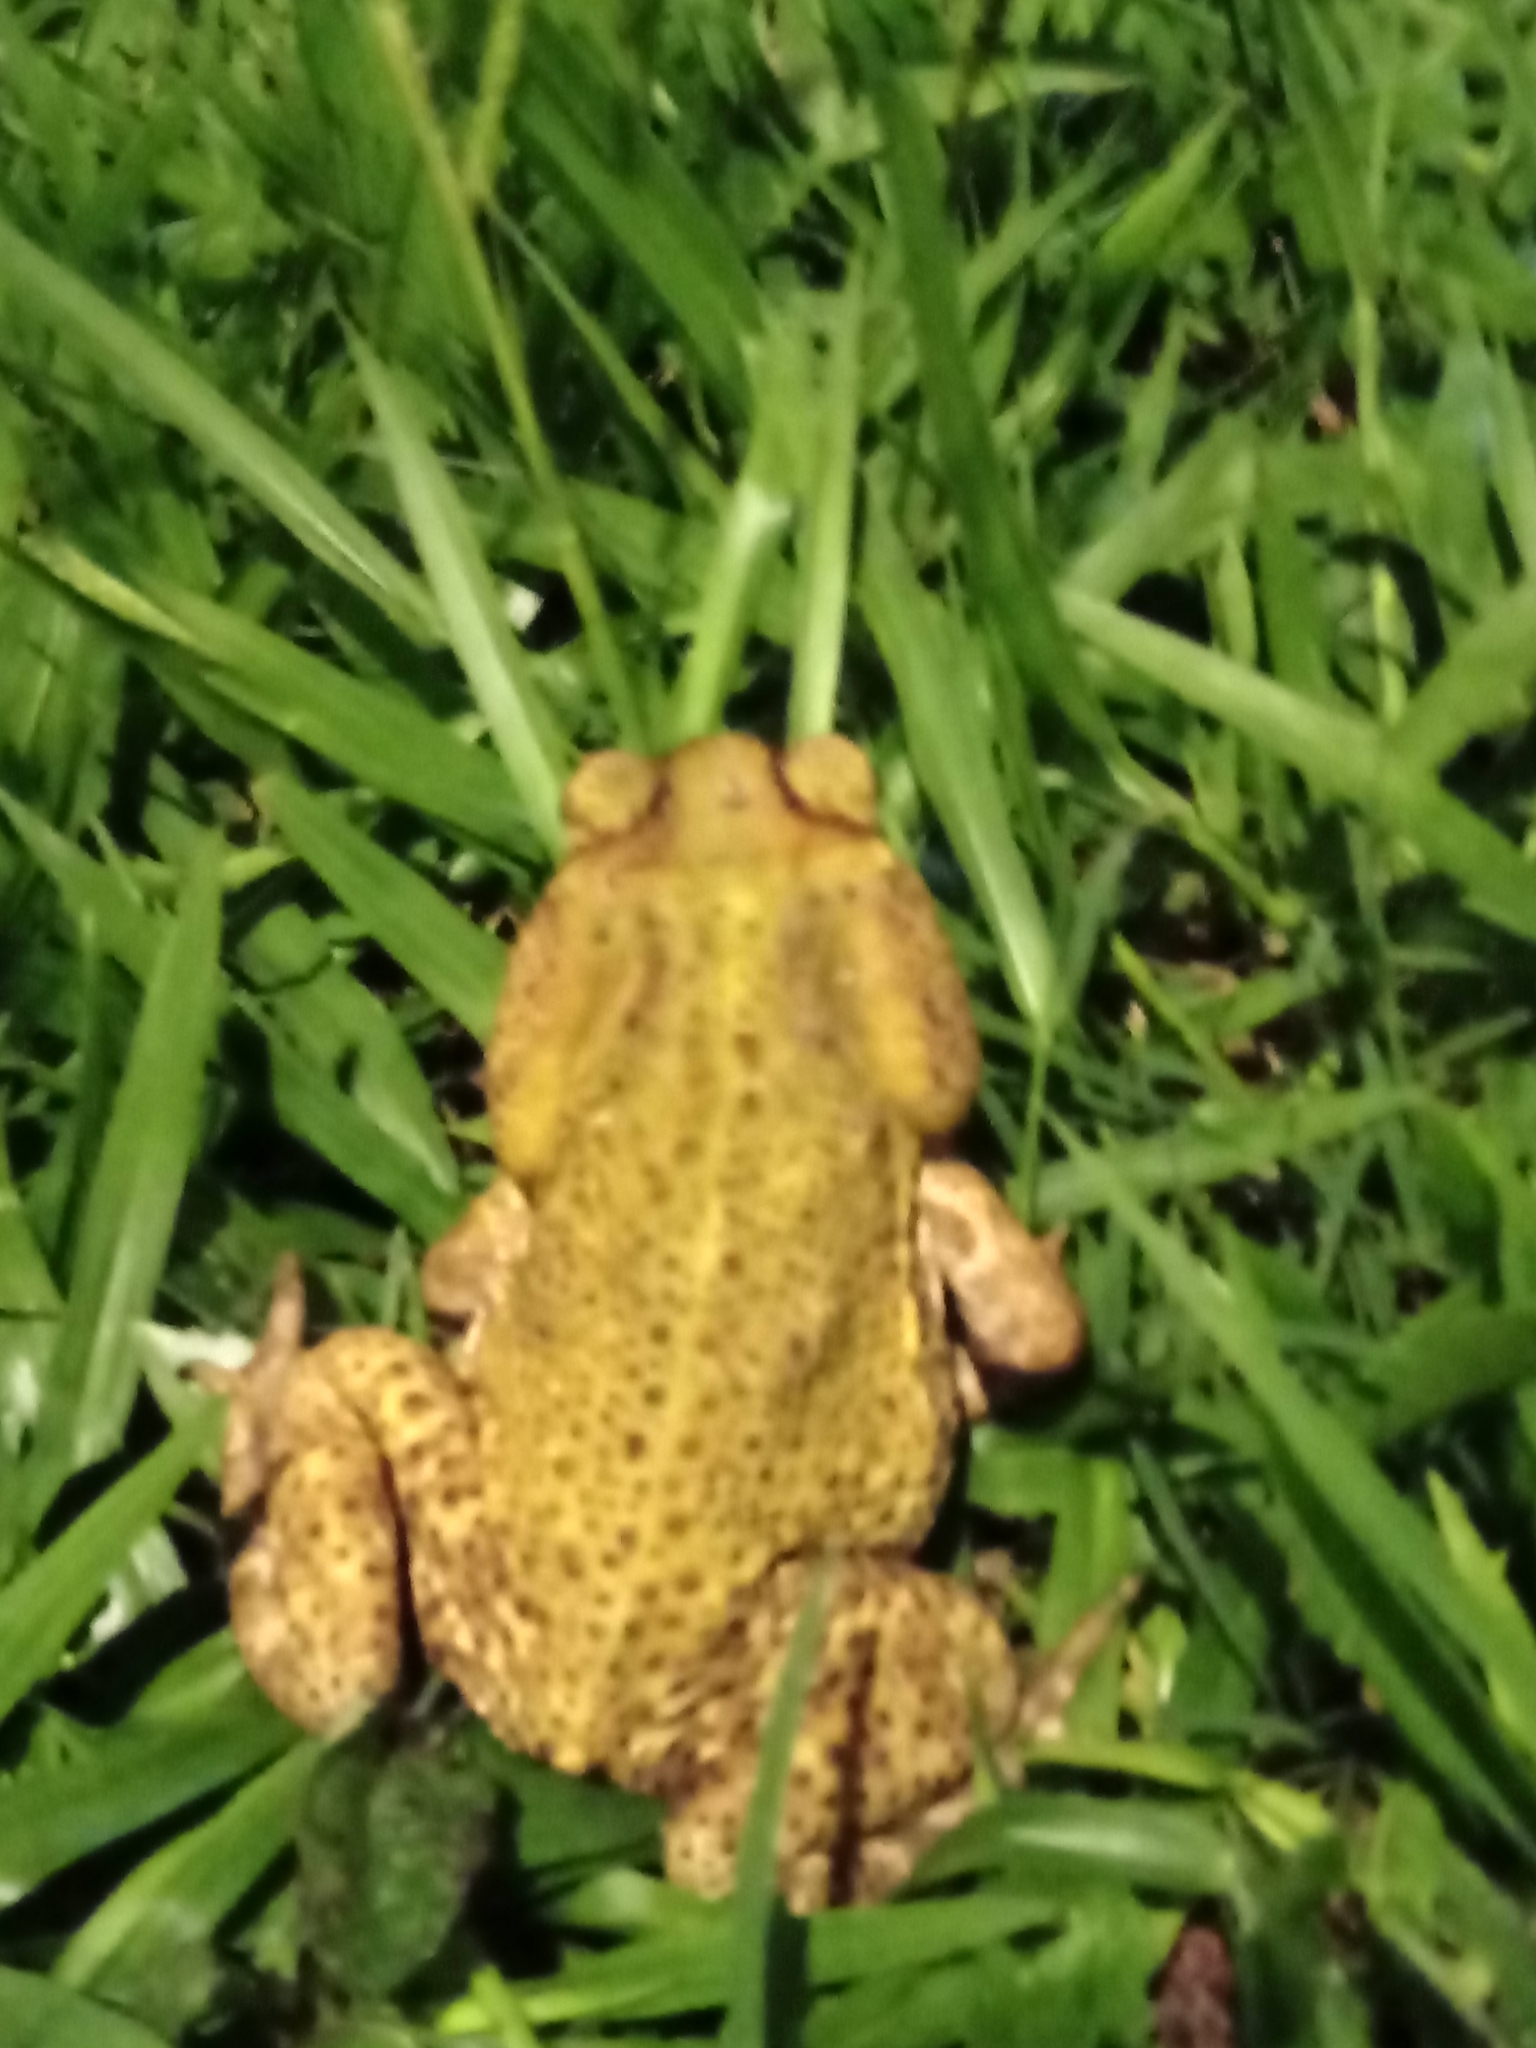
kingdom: Animalia
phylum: Chordata
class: Amphibia
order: Anura
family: Bufonidae
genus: Rhinella
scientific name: Rhinella icterica
